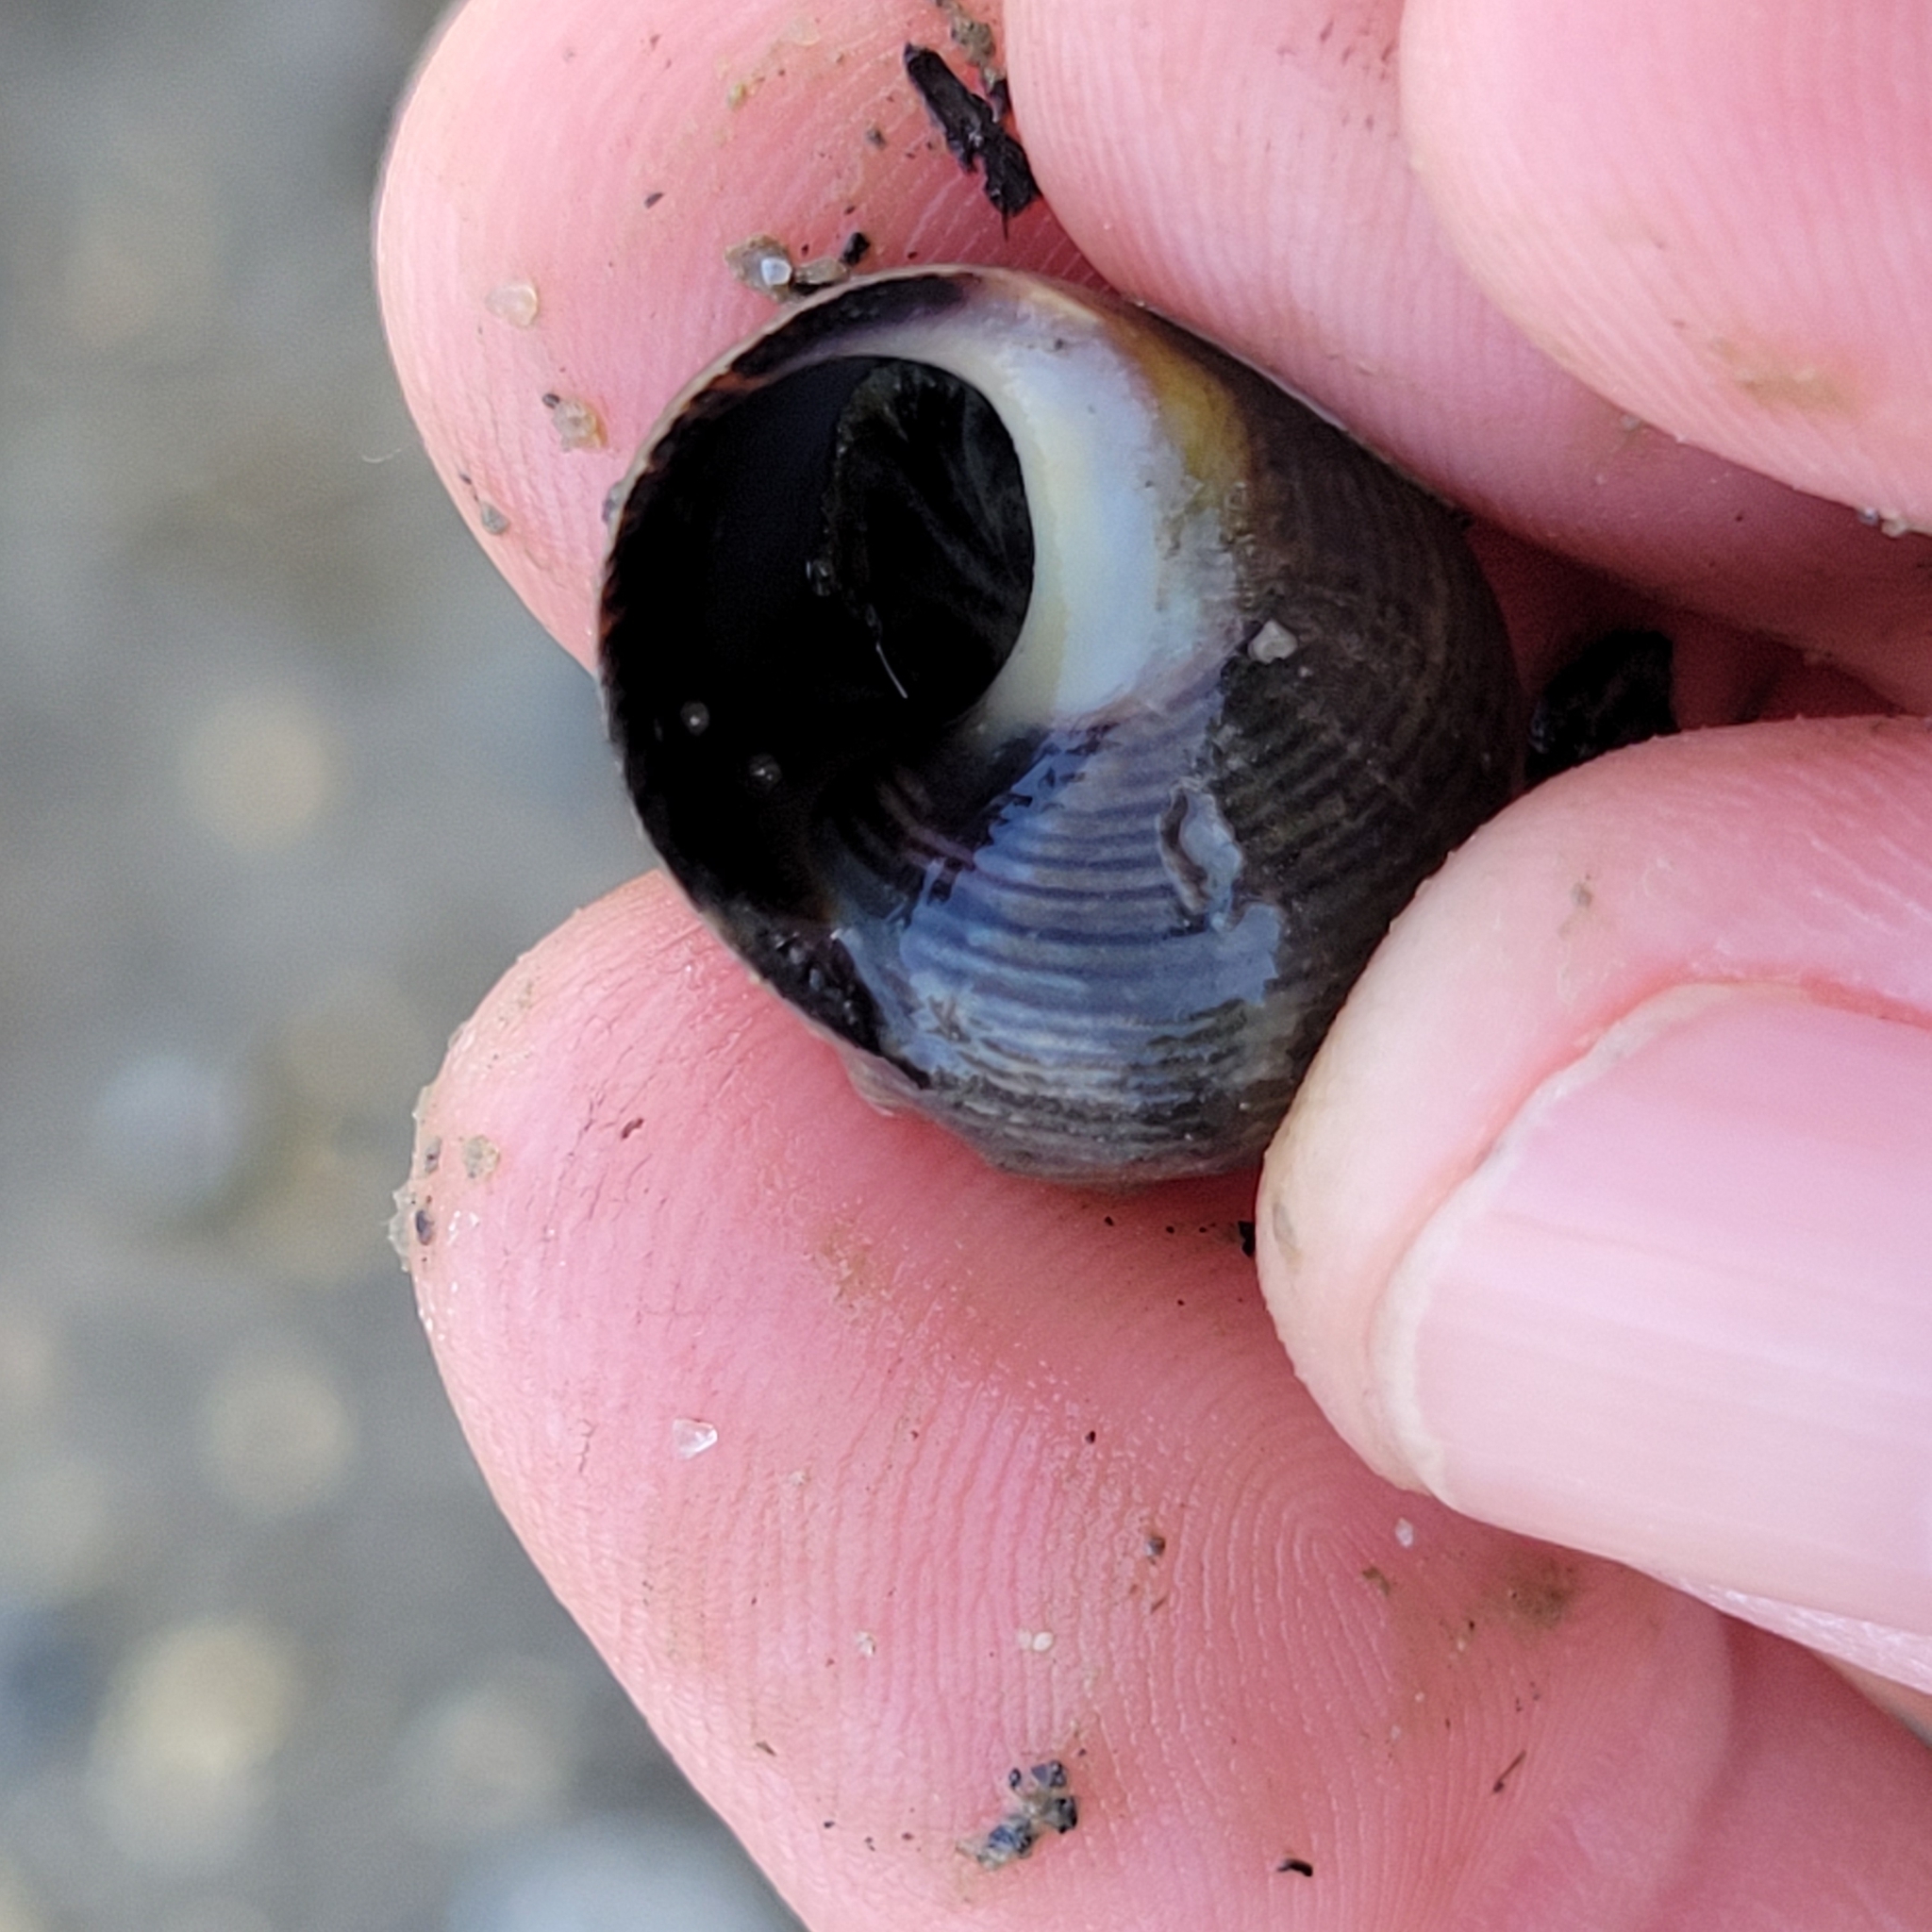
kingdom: Animalia
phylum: Mollusca
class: Gastropoda
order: Littorinimorpha
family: Littorinidae
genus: Littorina
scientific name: Littorina littorea
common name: Common periwinkle
